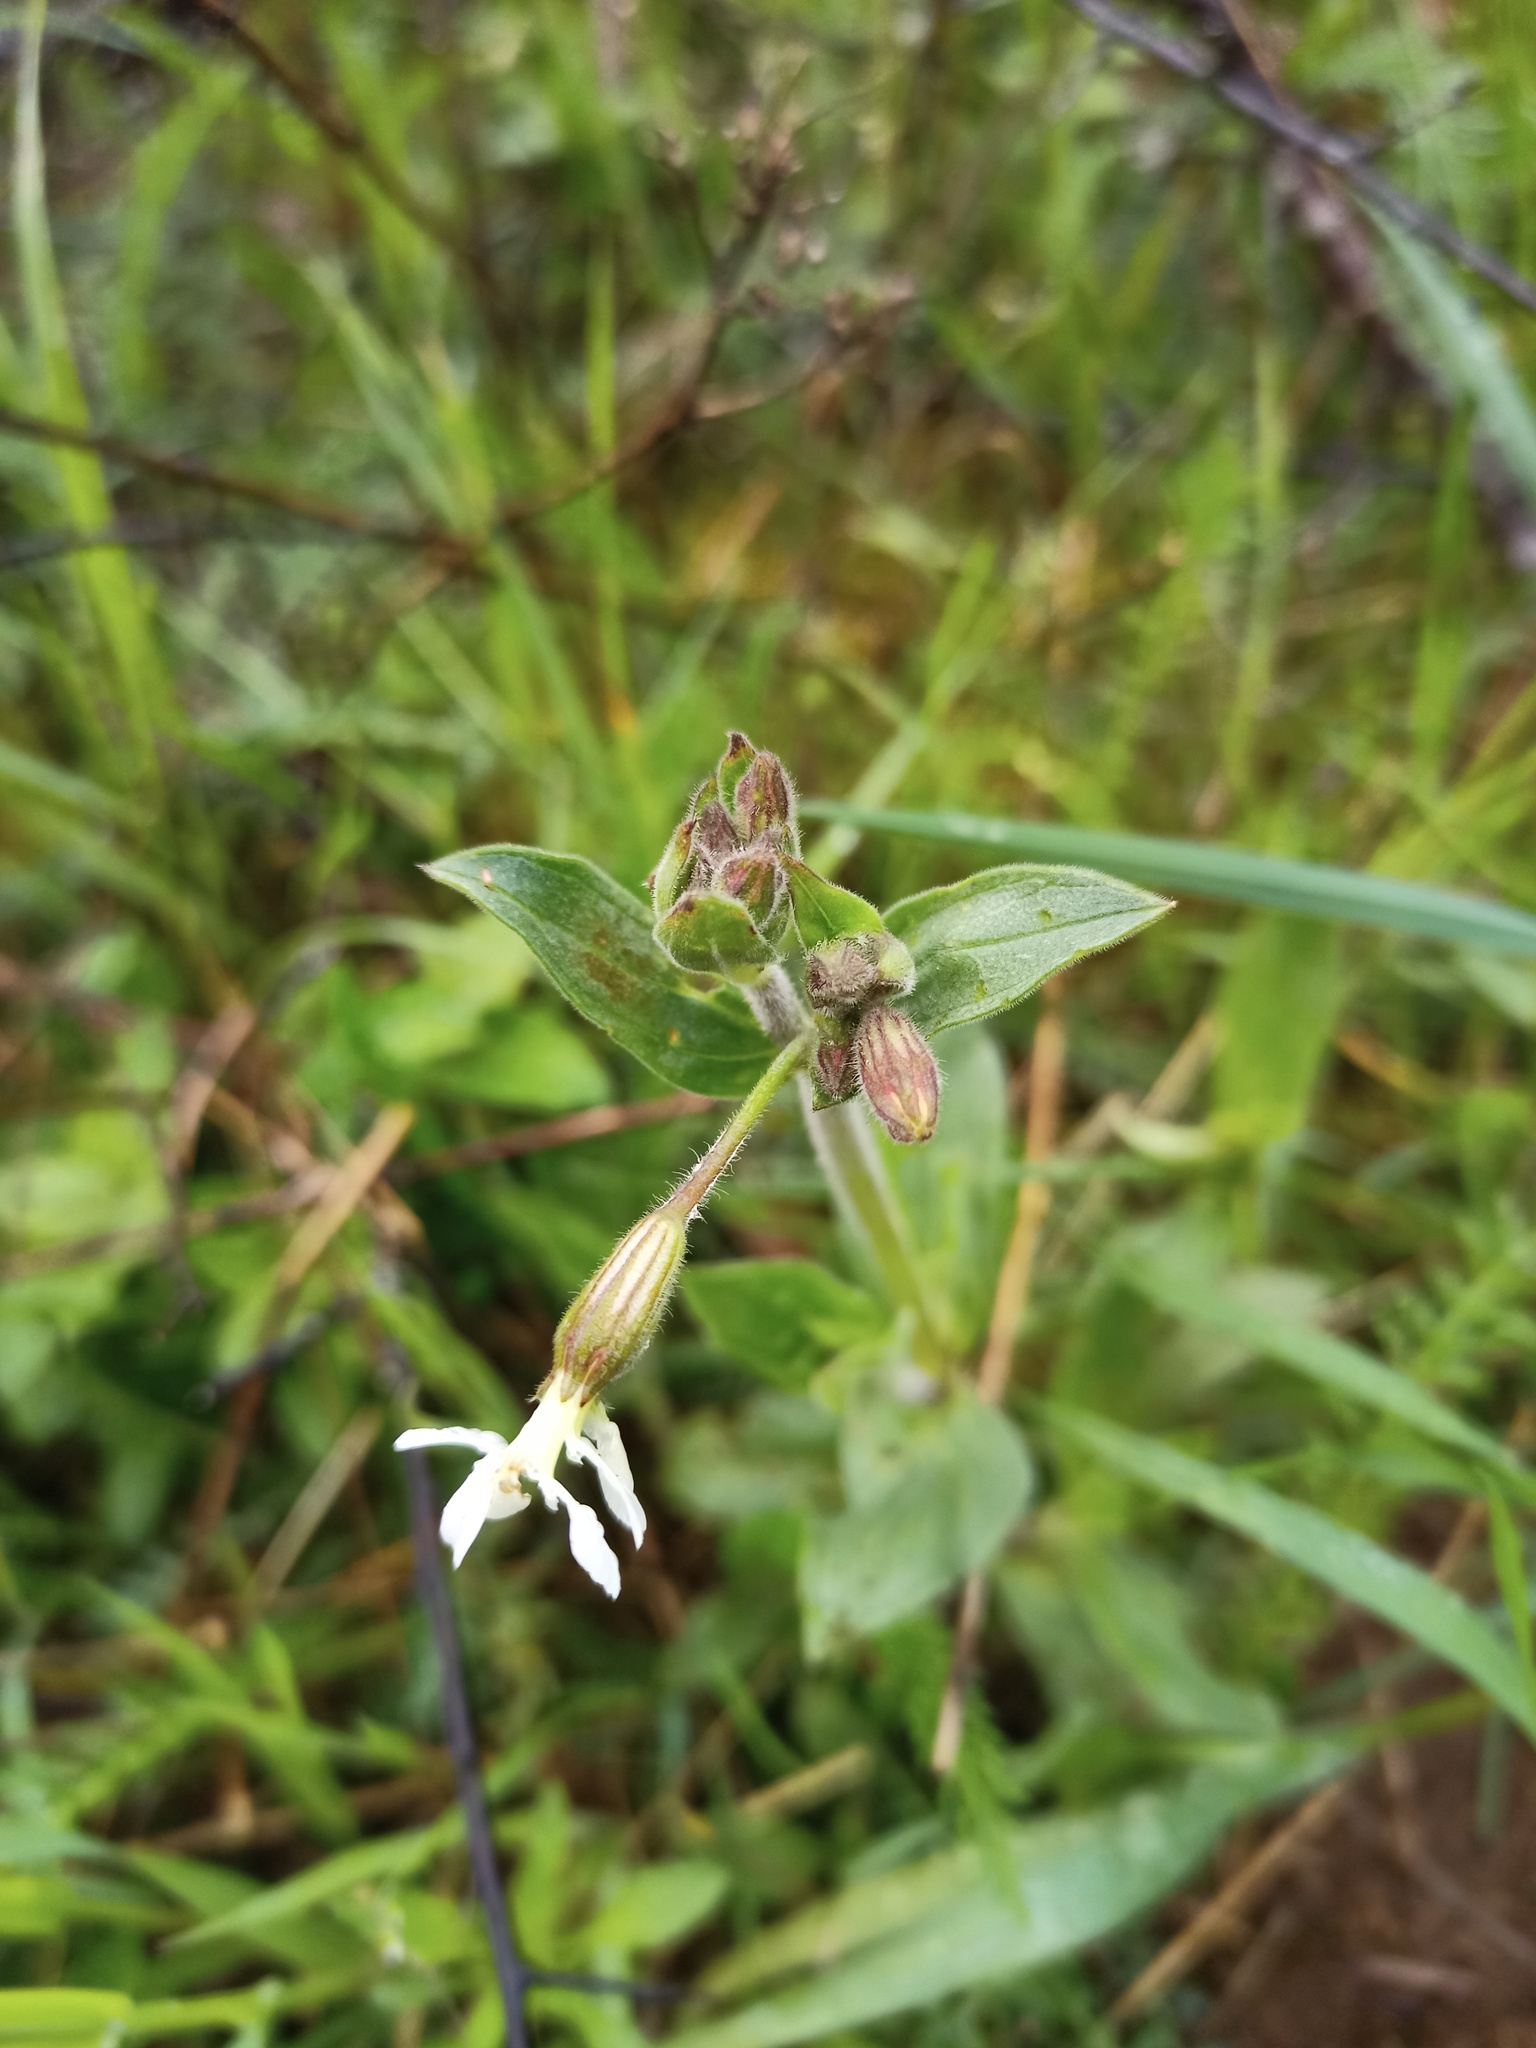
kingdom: Plantae
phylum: Tracheophyta
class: Magnoliopsida
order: Caryophyllales
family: Caryophyllaceae
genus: Silene
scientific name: Silene latifolia
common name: White campion
